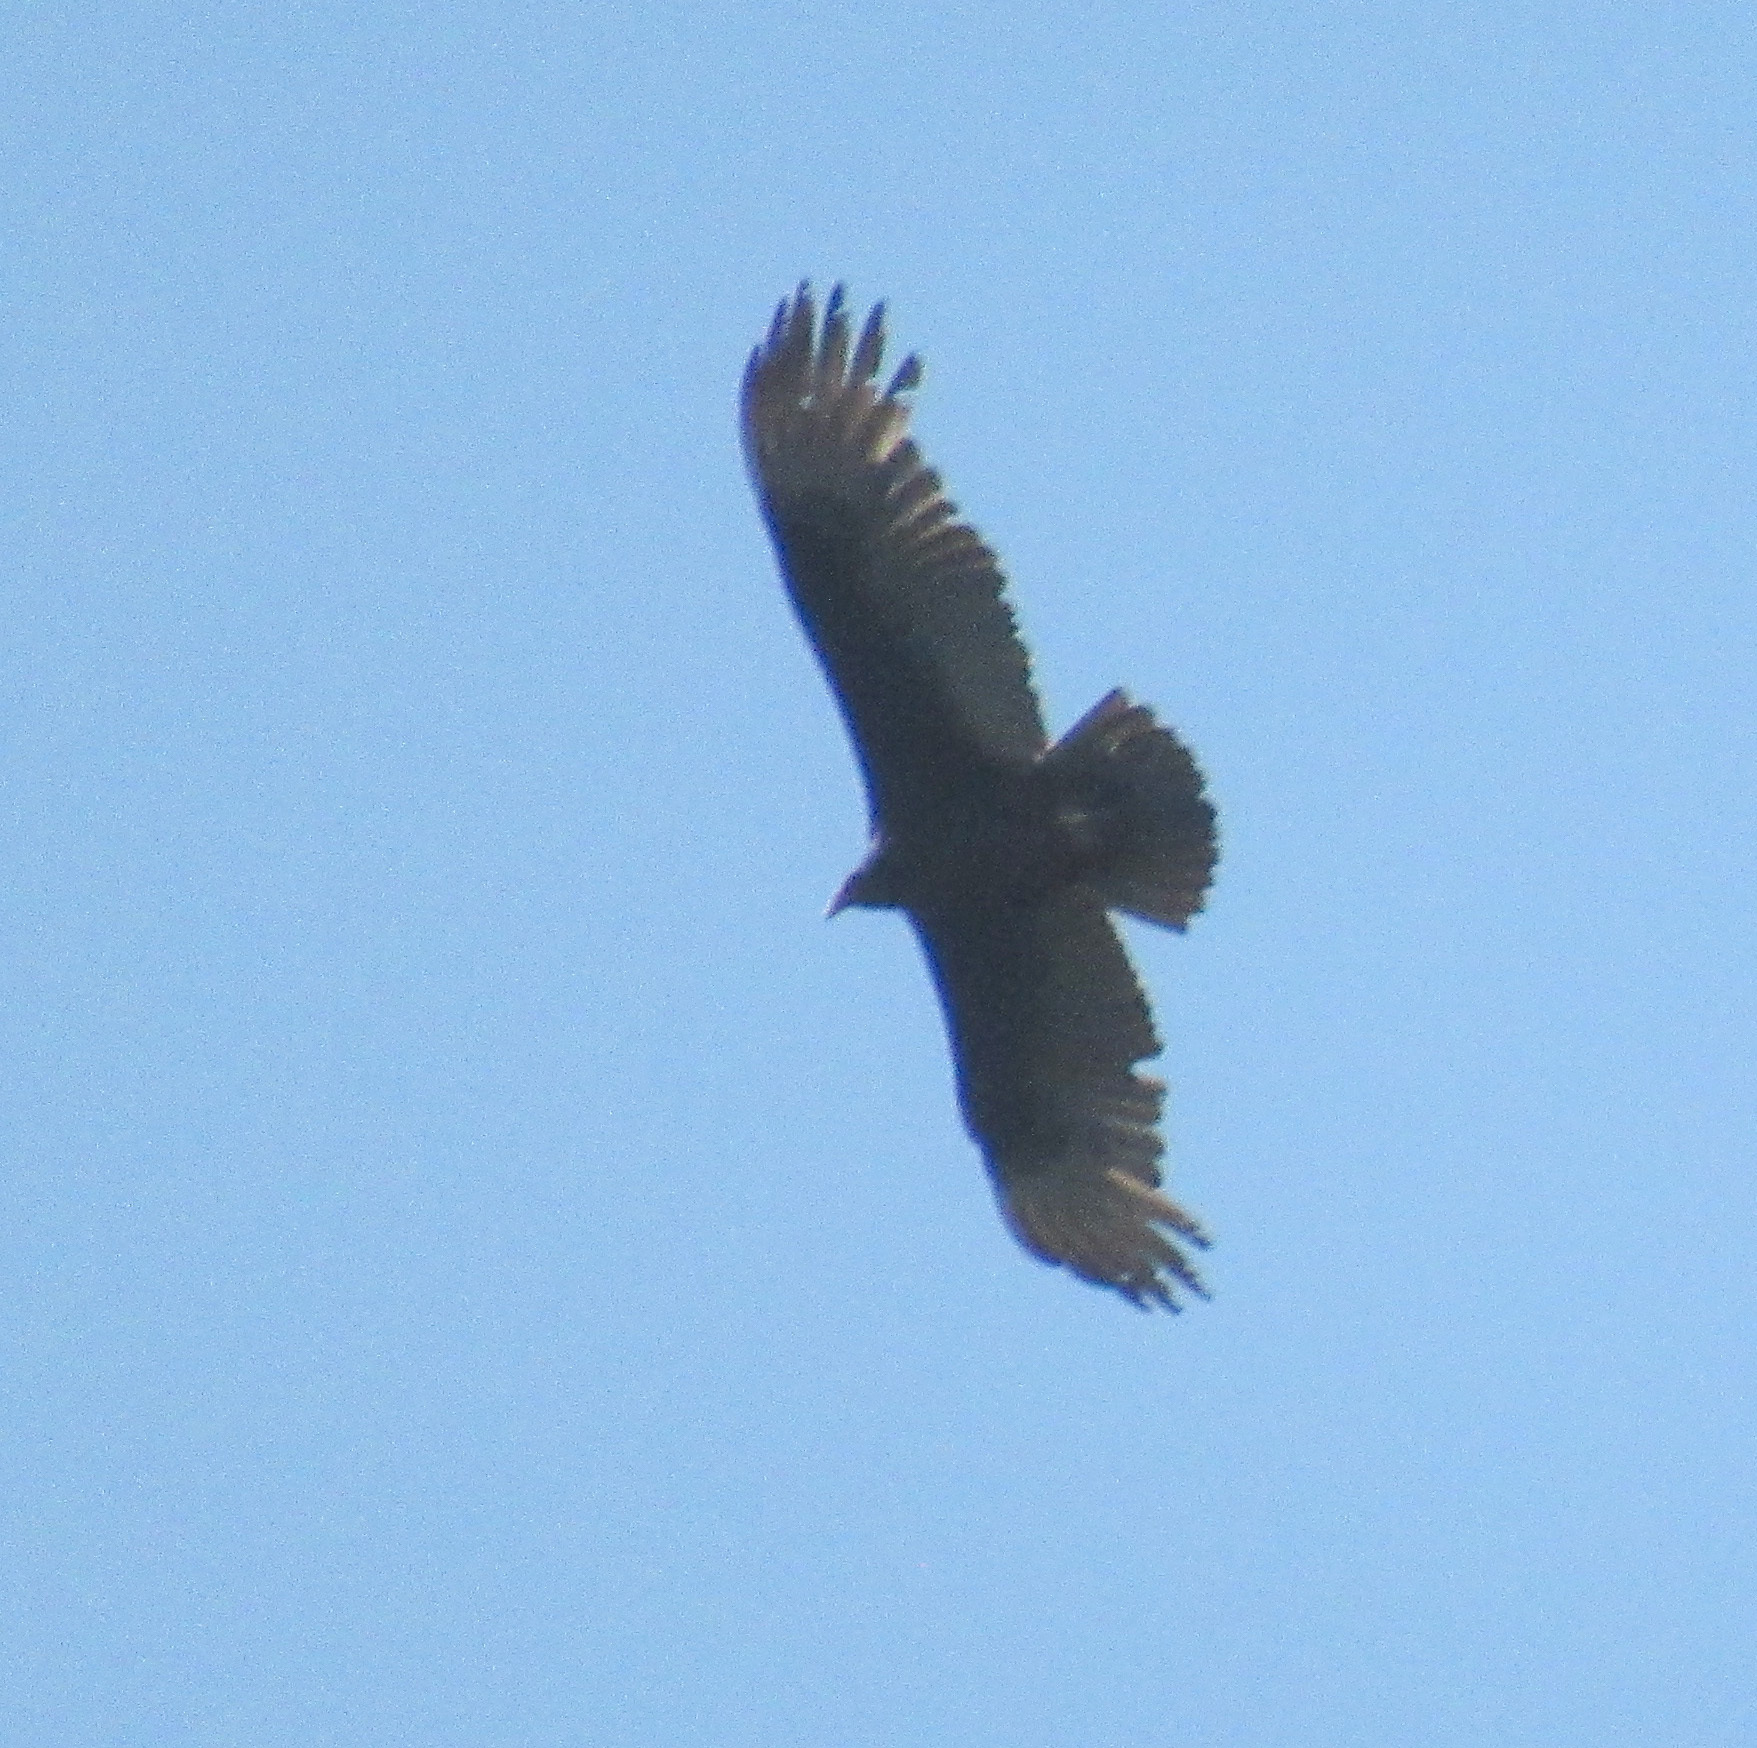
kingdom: Animalia
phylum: Chordata
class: Aves
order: Accipitriformes
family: Cathartidae
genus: Cathartes
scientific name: Cathartes aura
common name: Turkey vulture
